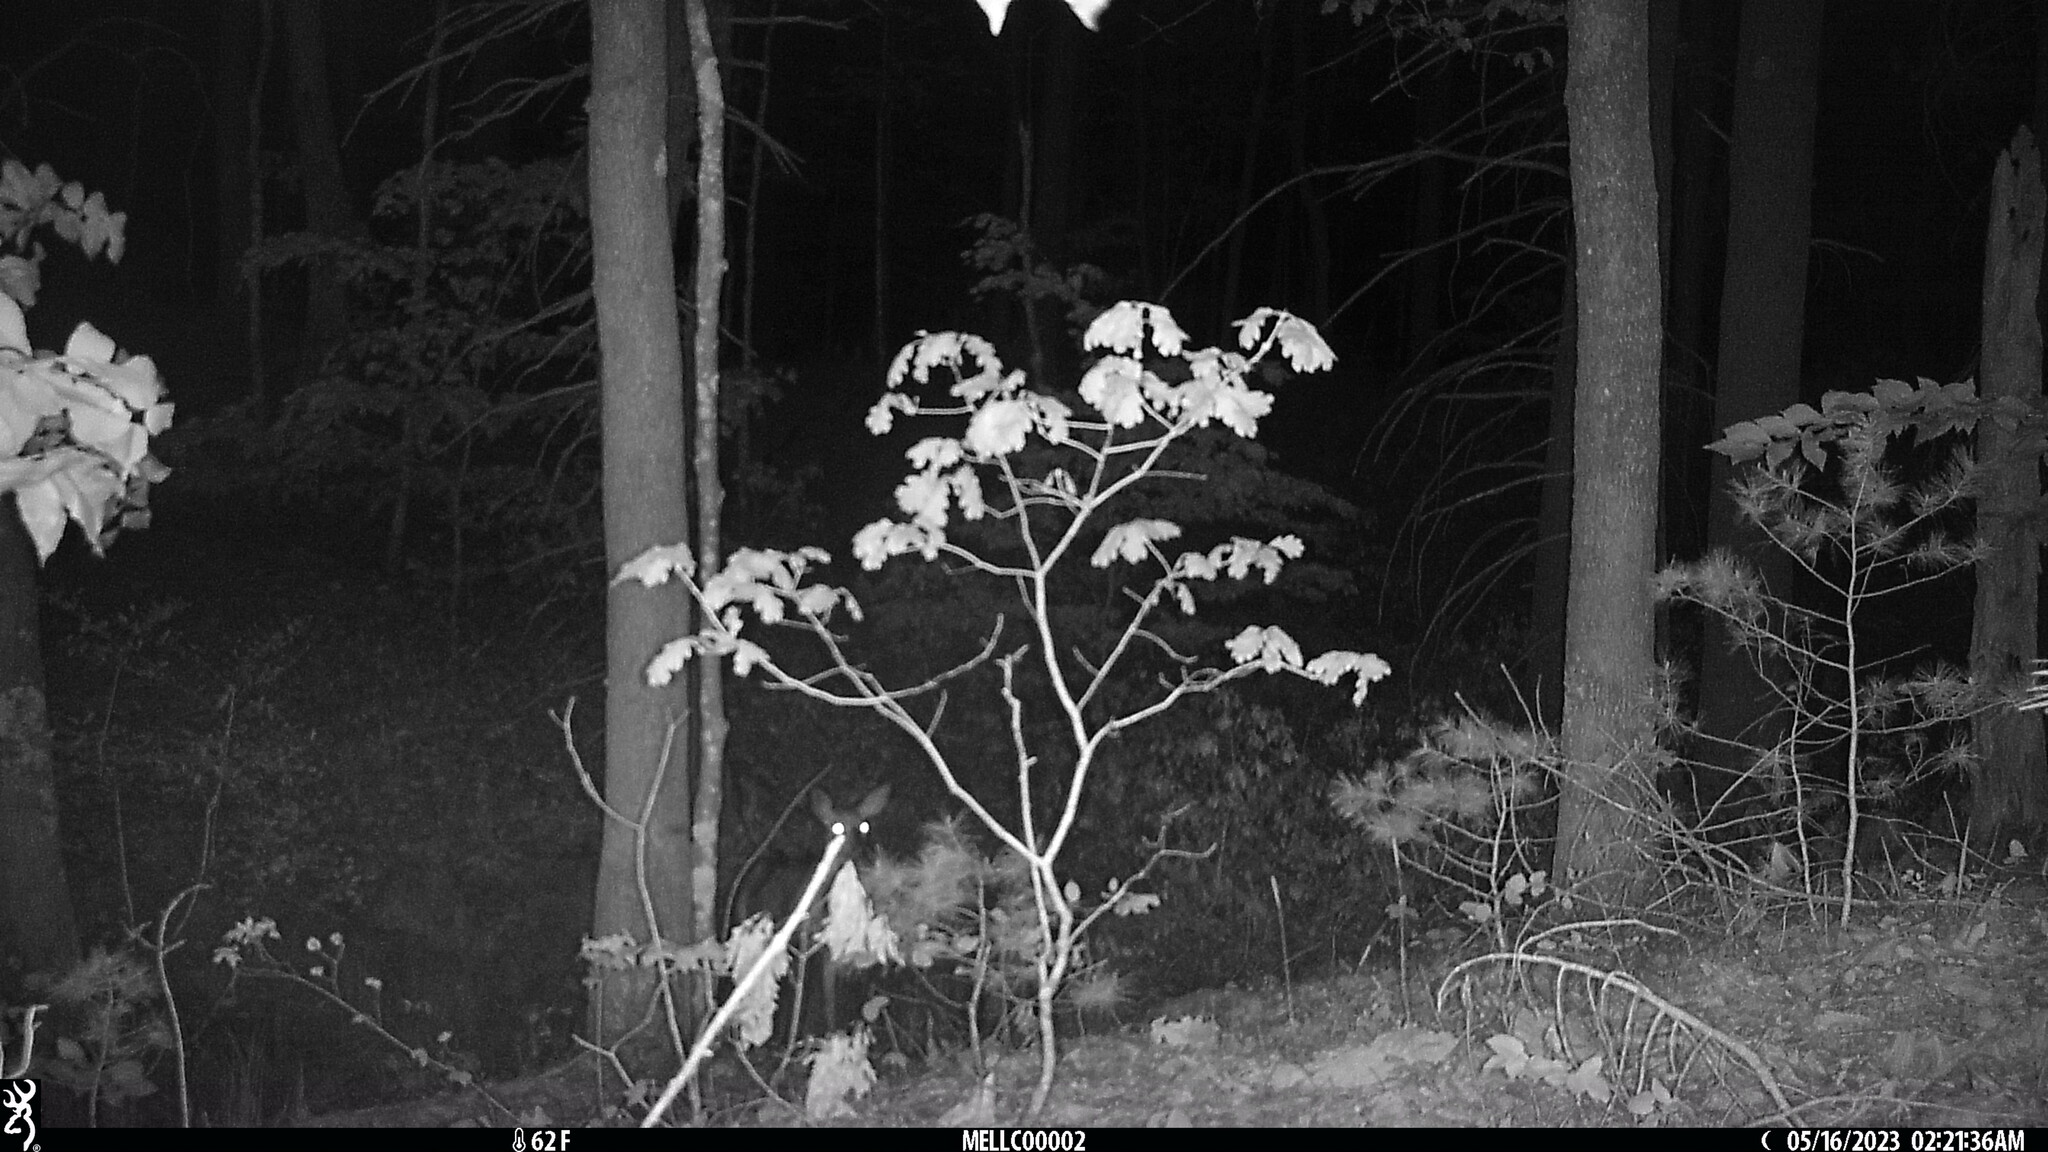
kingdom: Animalia
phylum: Chordata
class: Mammalia
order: Artiodactyla
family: Cervidae
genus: Odocoileus
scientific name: Odocoileus virginianus
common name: White-tailed deer
